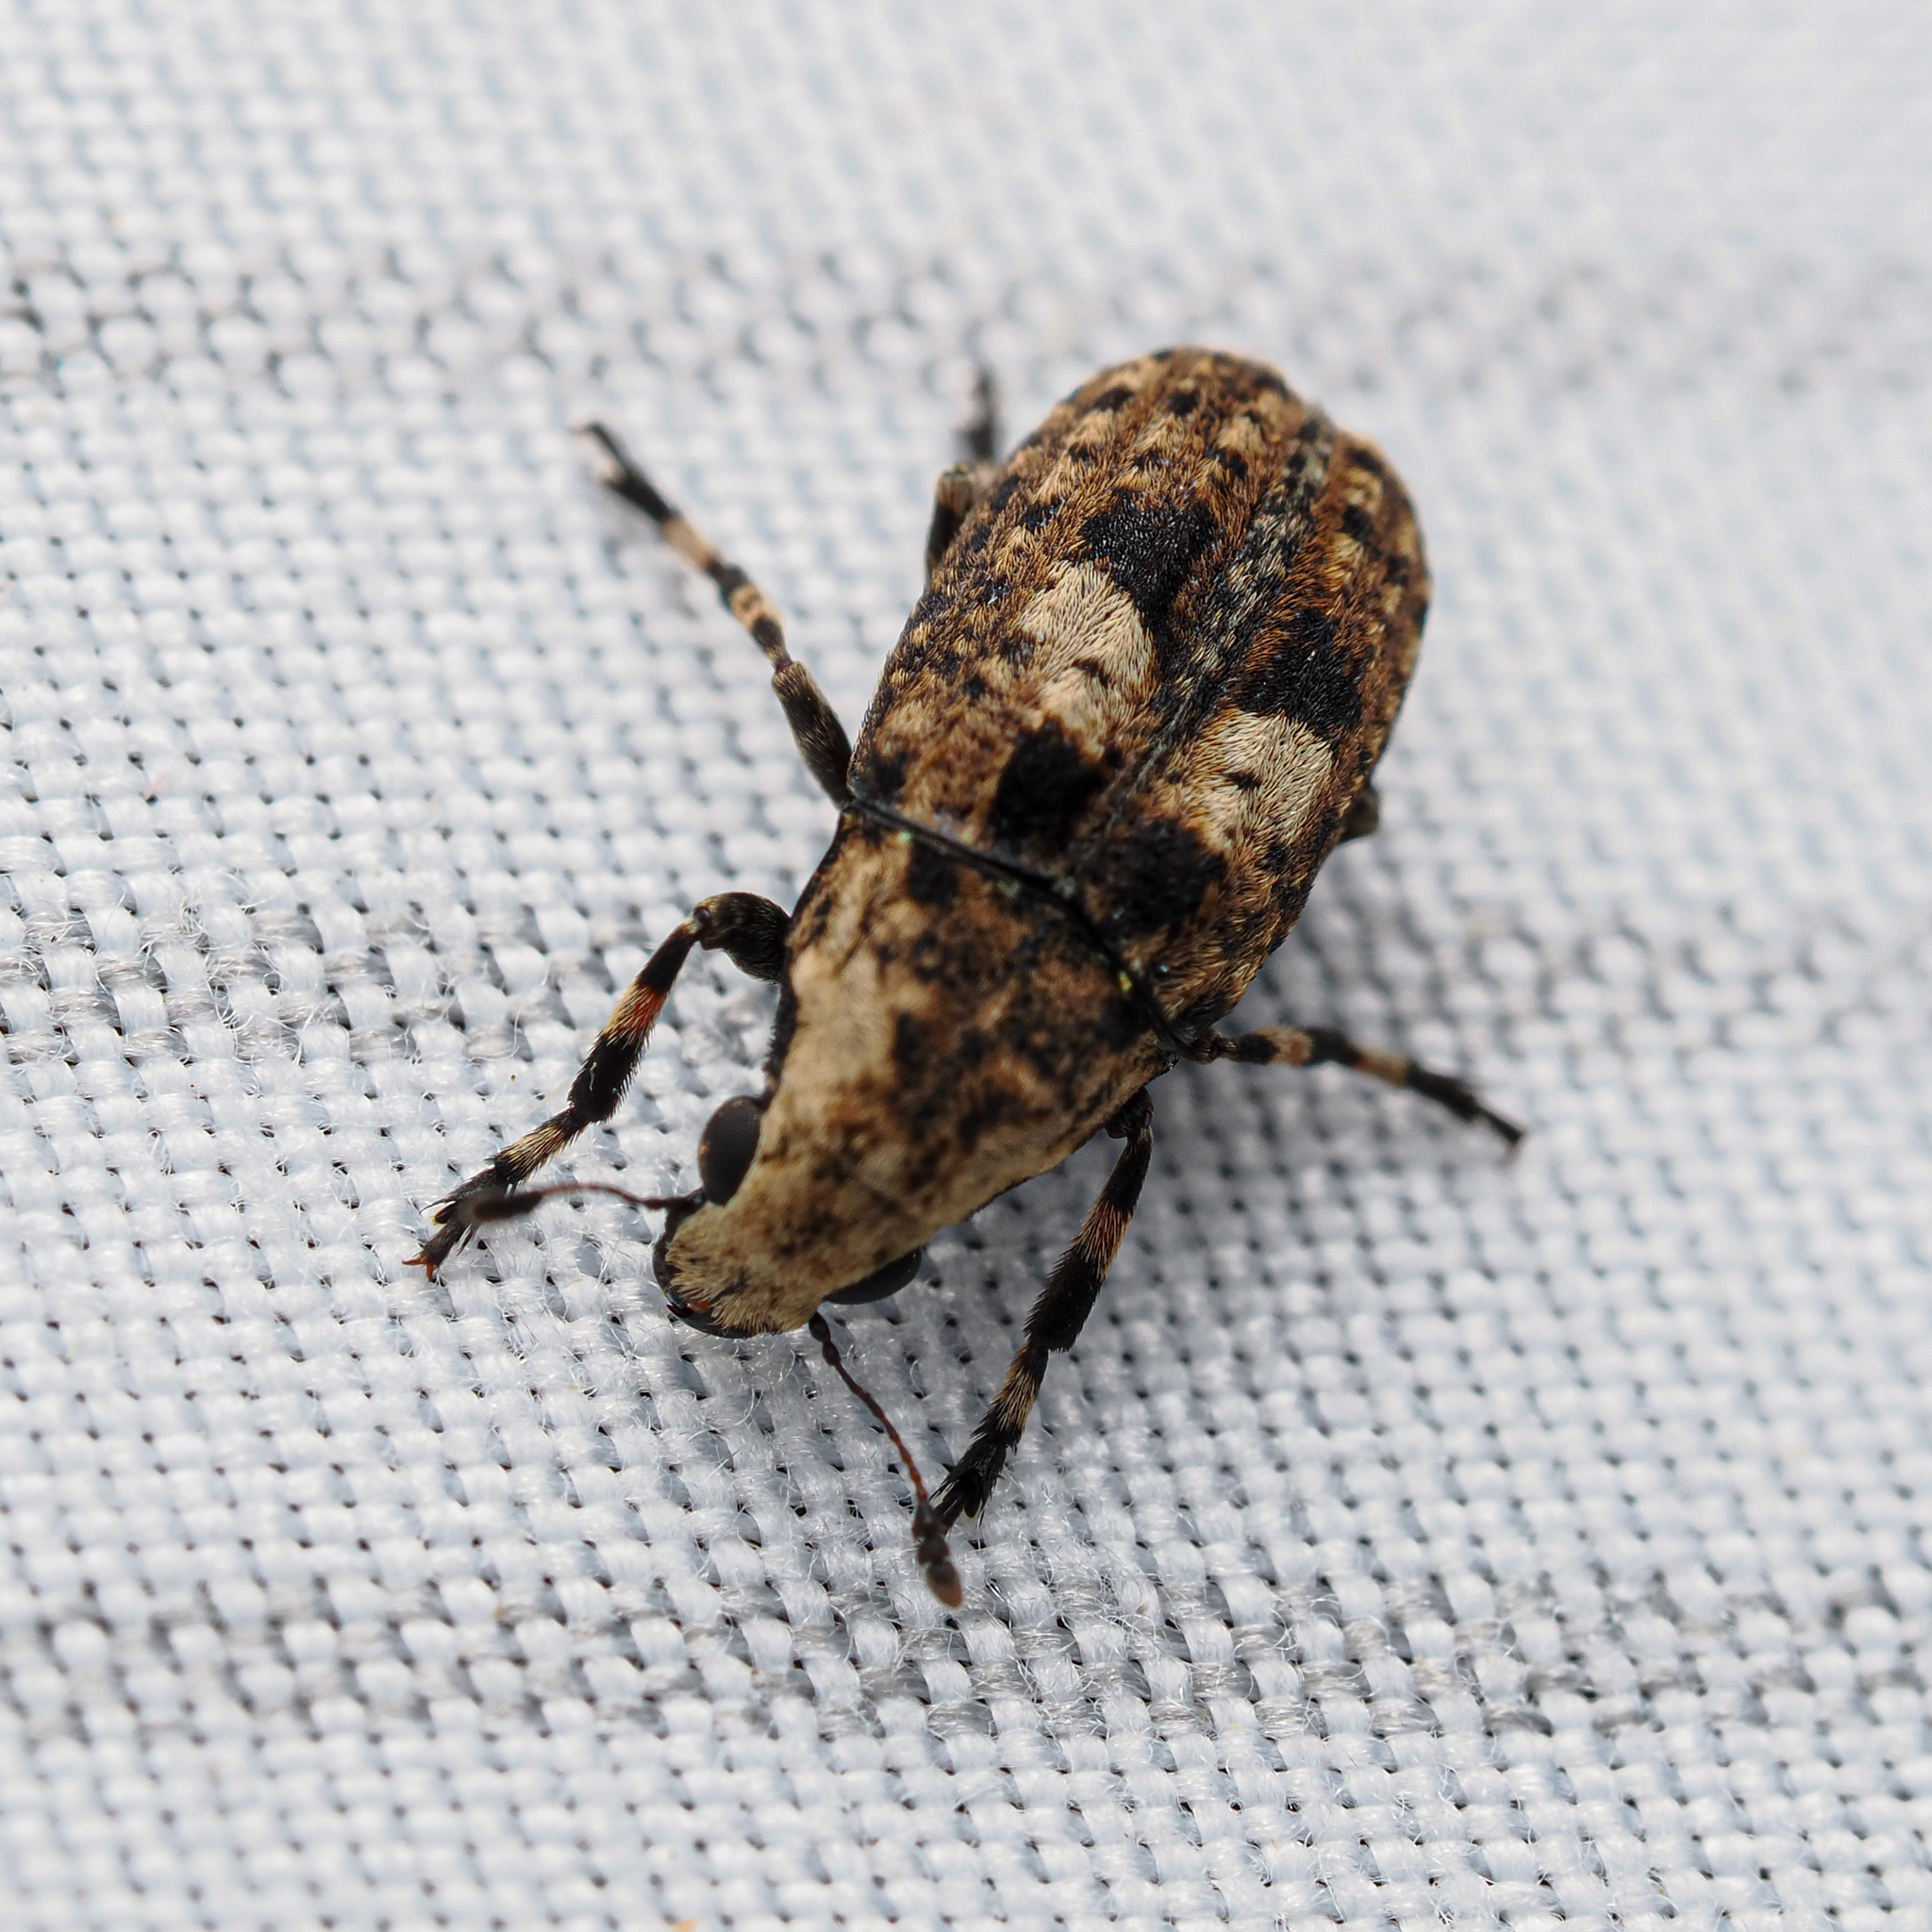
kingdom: Animalia
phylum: Arthropoda
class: Insecta
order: Coleoptera
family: Anthribidae
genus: Euparius
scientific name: Euparius marmoreus
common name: Marbled fungus weevil
